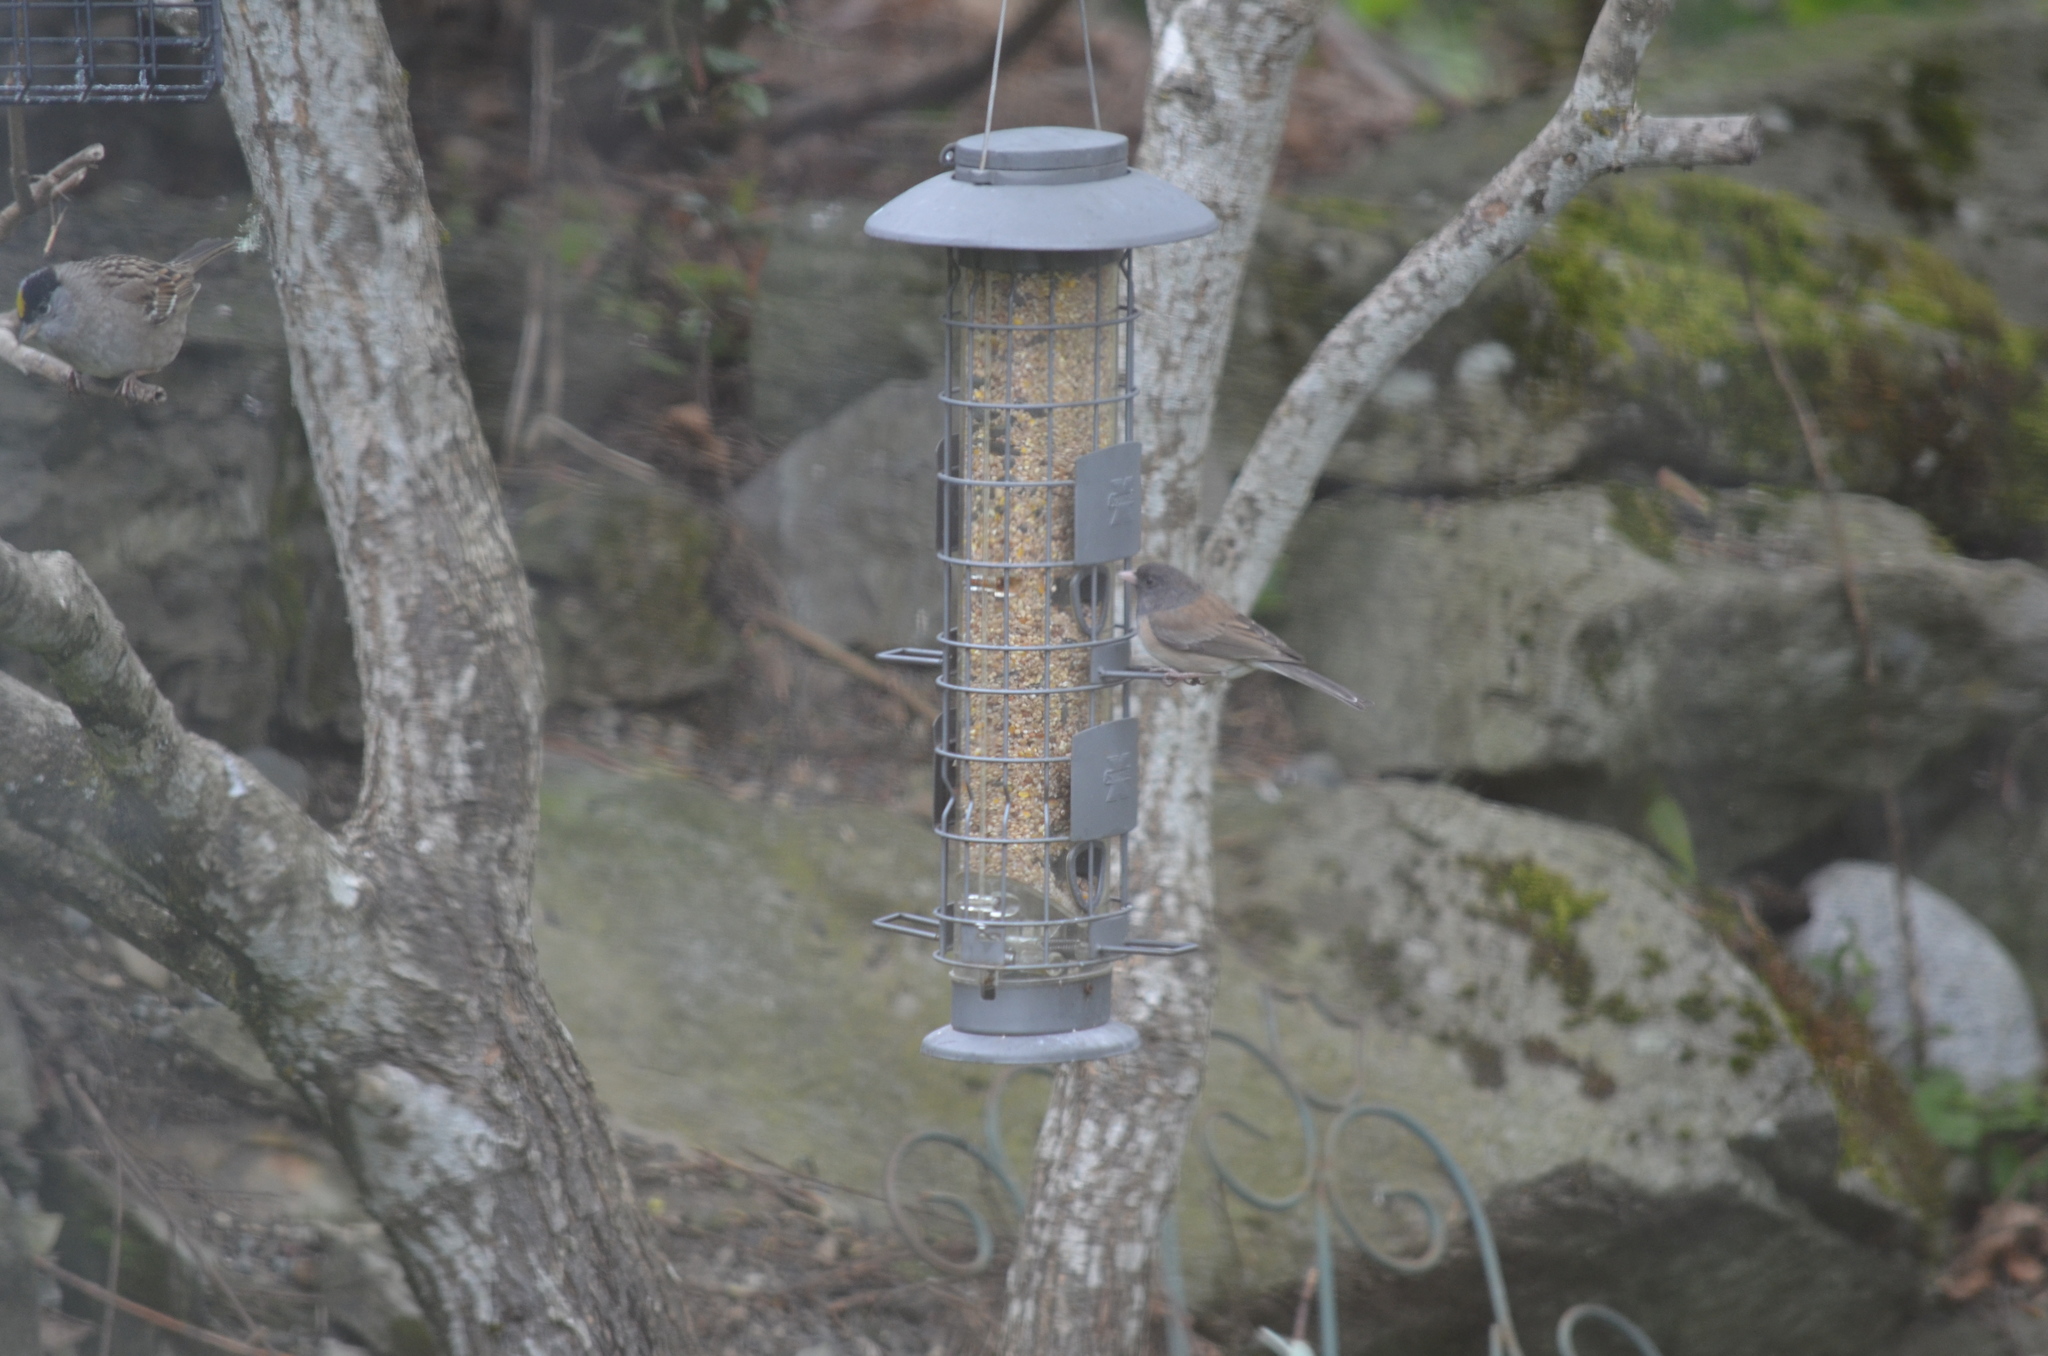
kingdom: Animalia
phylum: Chordata
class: Aves
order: Passeriformes
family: Passerellidae
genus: Junco
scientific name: Junco hyemalis
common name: Dark-eyed junco
